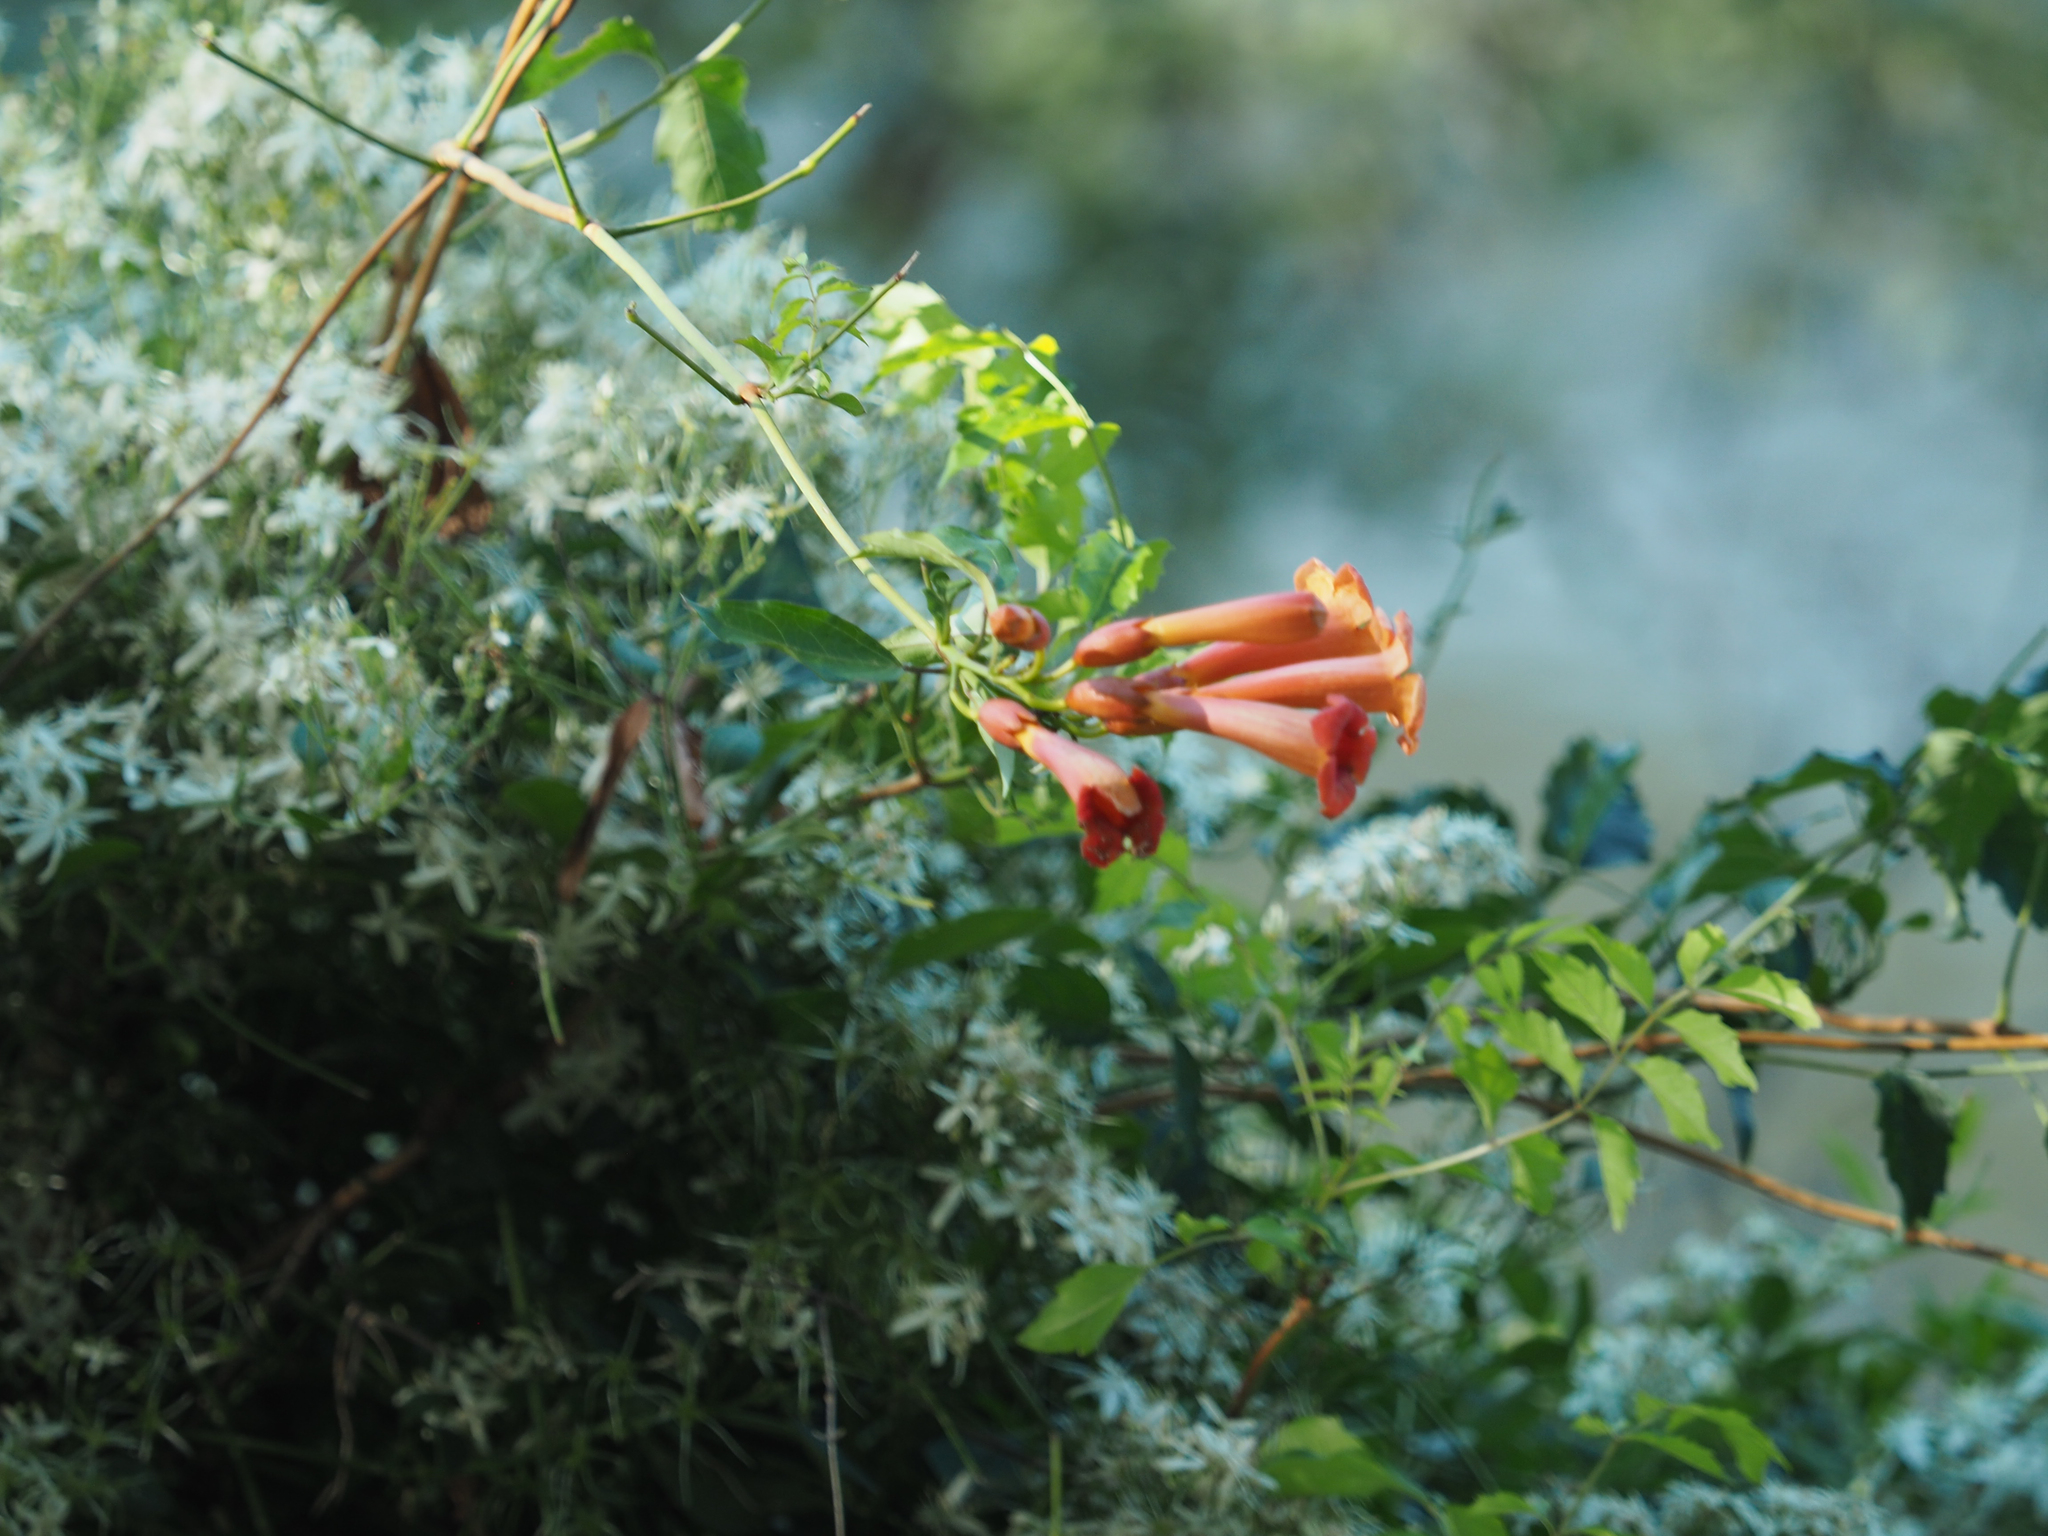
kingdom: Plantae
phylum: Tracheophyta
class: Magnoliopsida
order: Lamiales
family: Bignoniaceae
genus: Campsis
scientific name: Campsis radicans
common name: Trumpet-creeper
